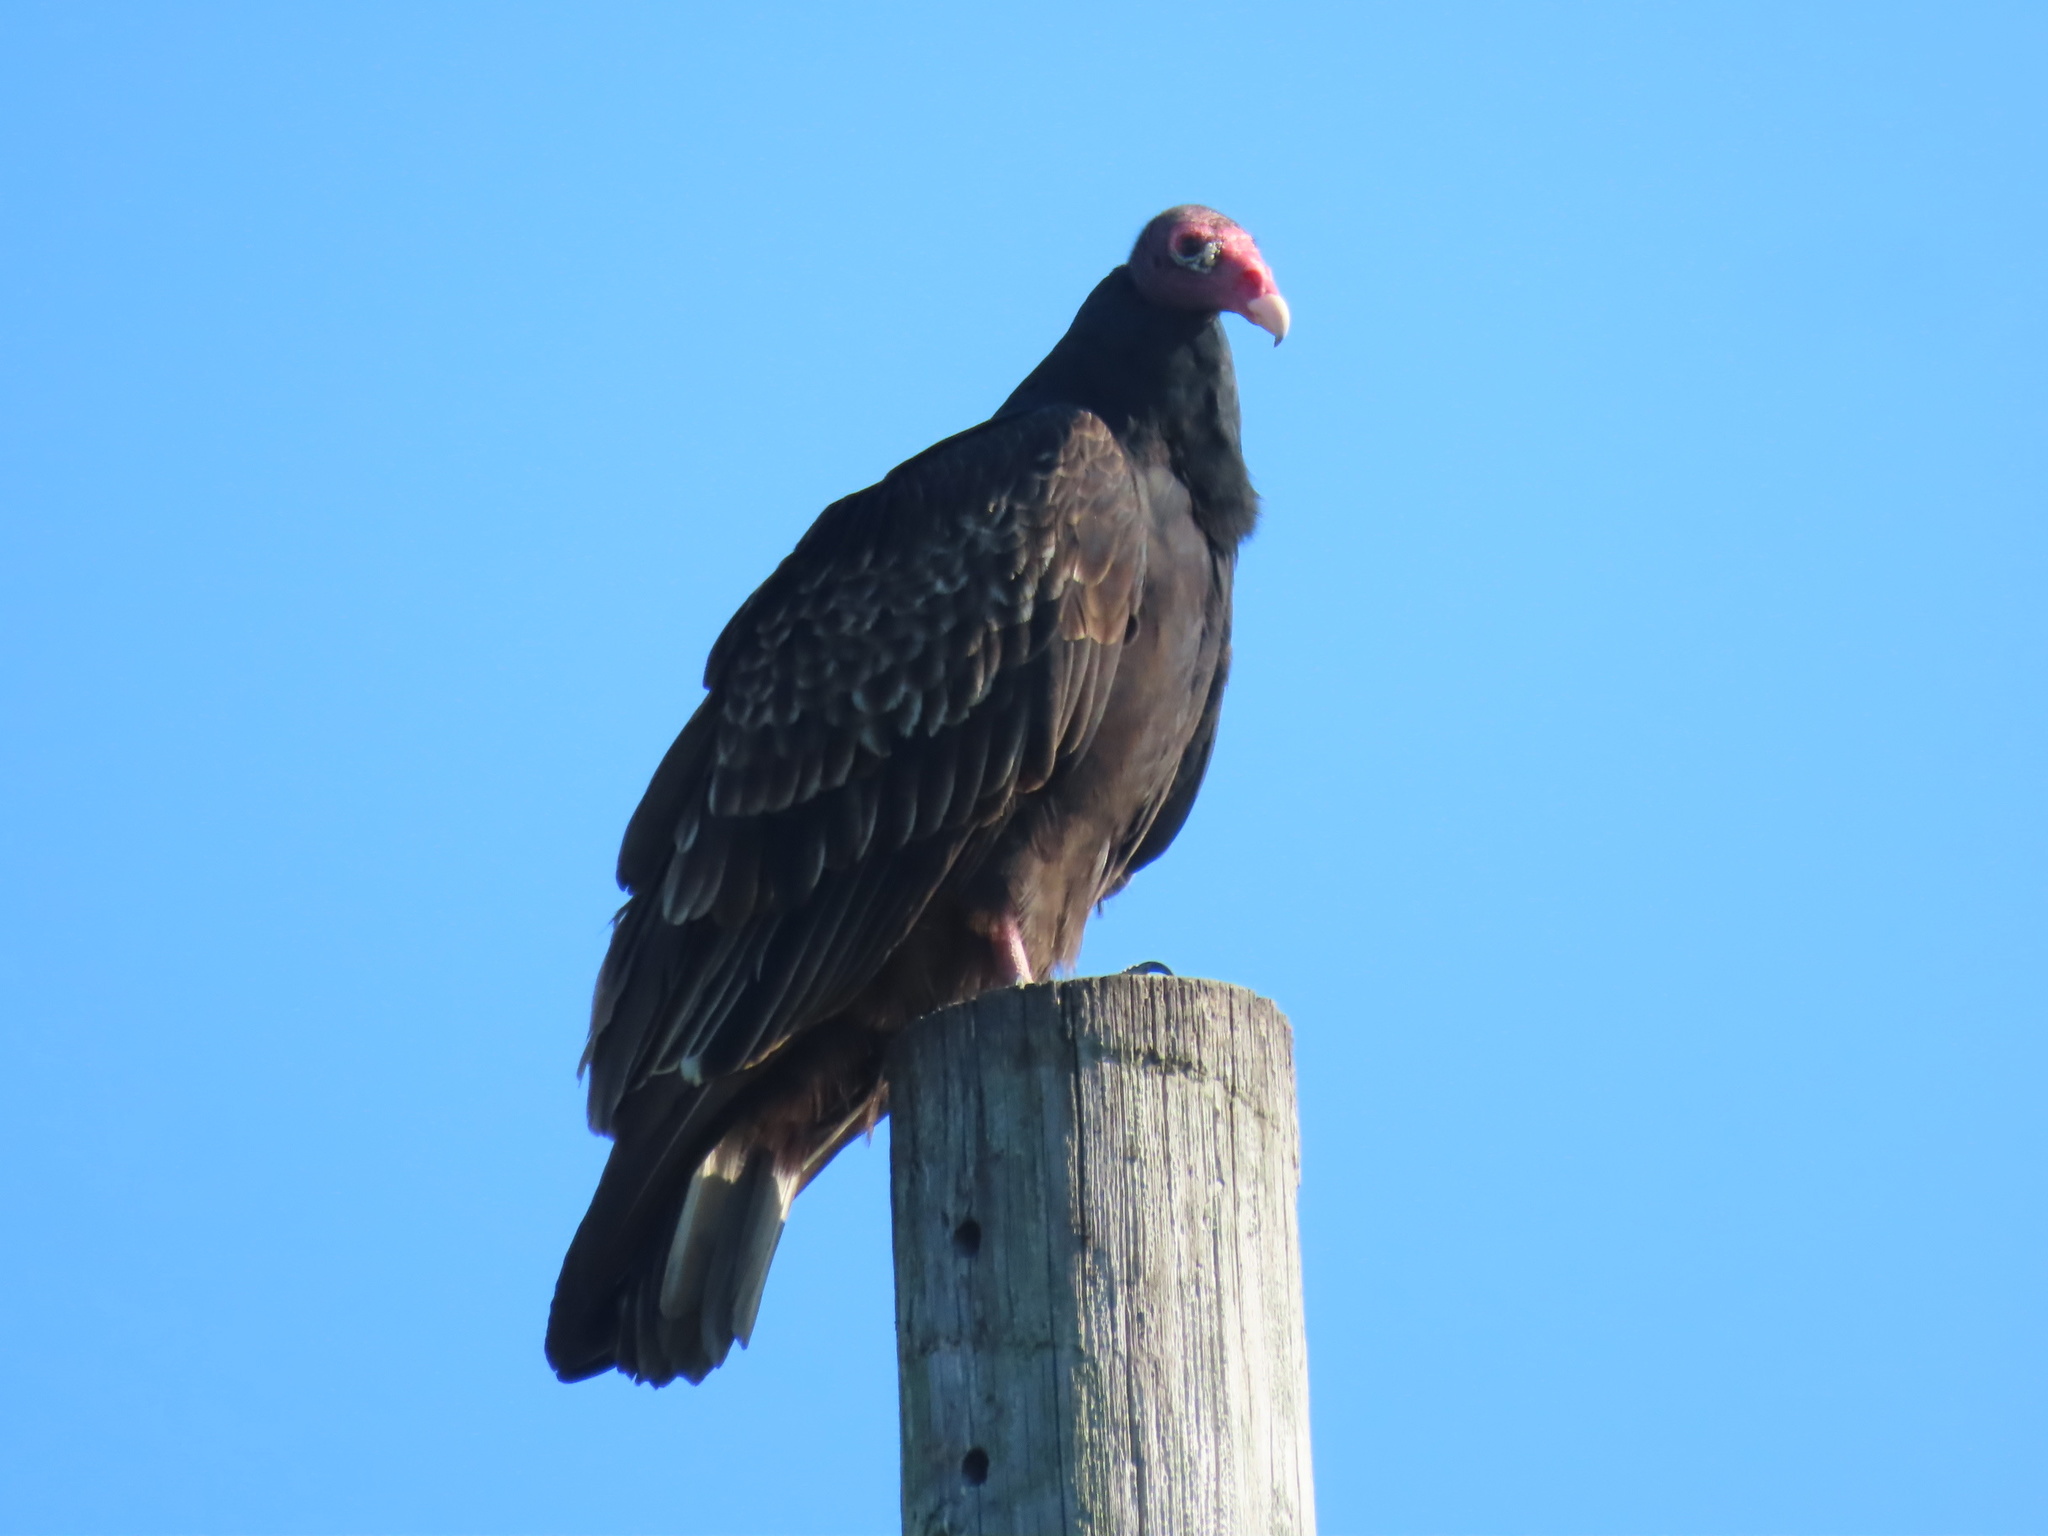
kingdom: Animalia
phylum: Chordata
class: Aves
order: Accipitriformes
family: Cathartidae
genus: Cathartes
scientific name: Cathartes aura
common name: Turkey vulture
